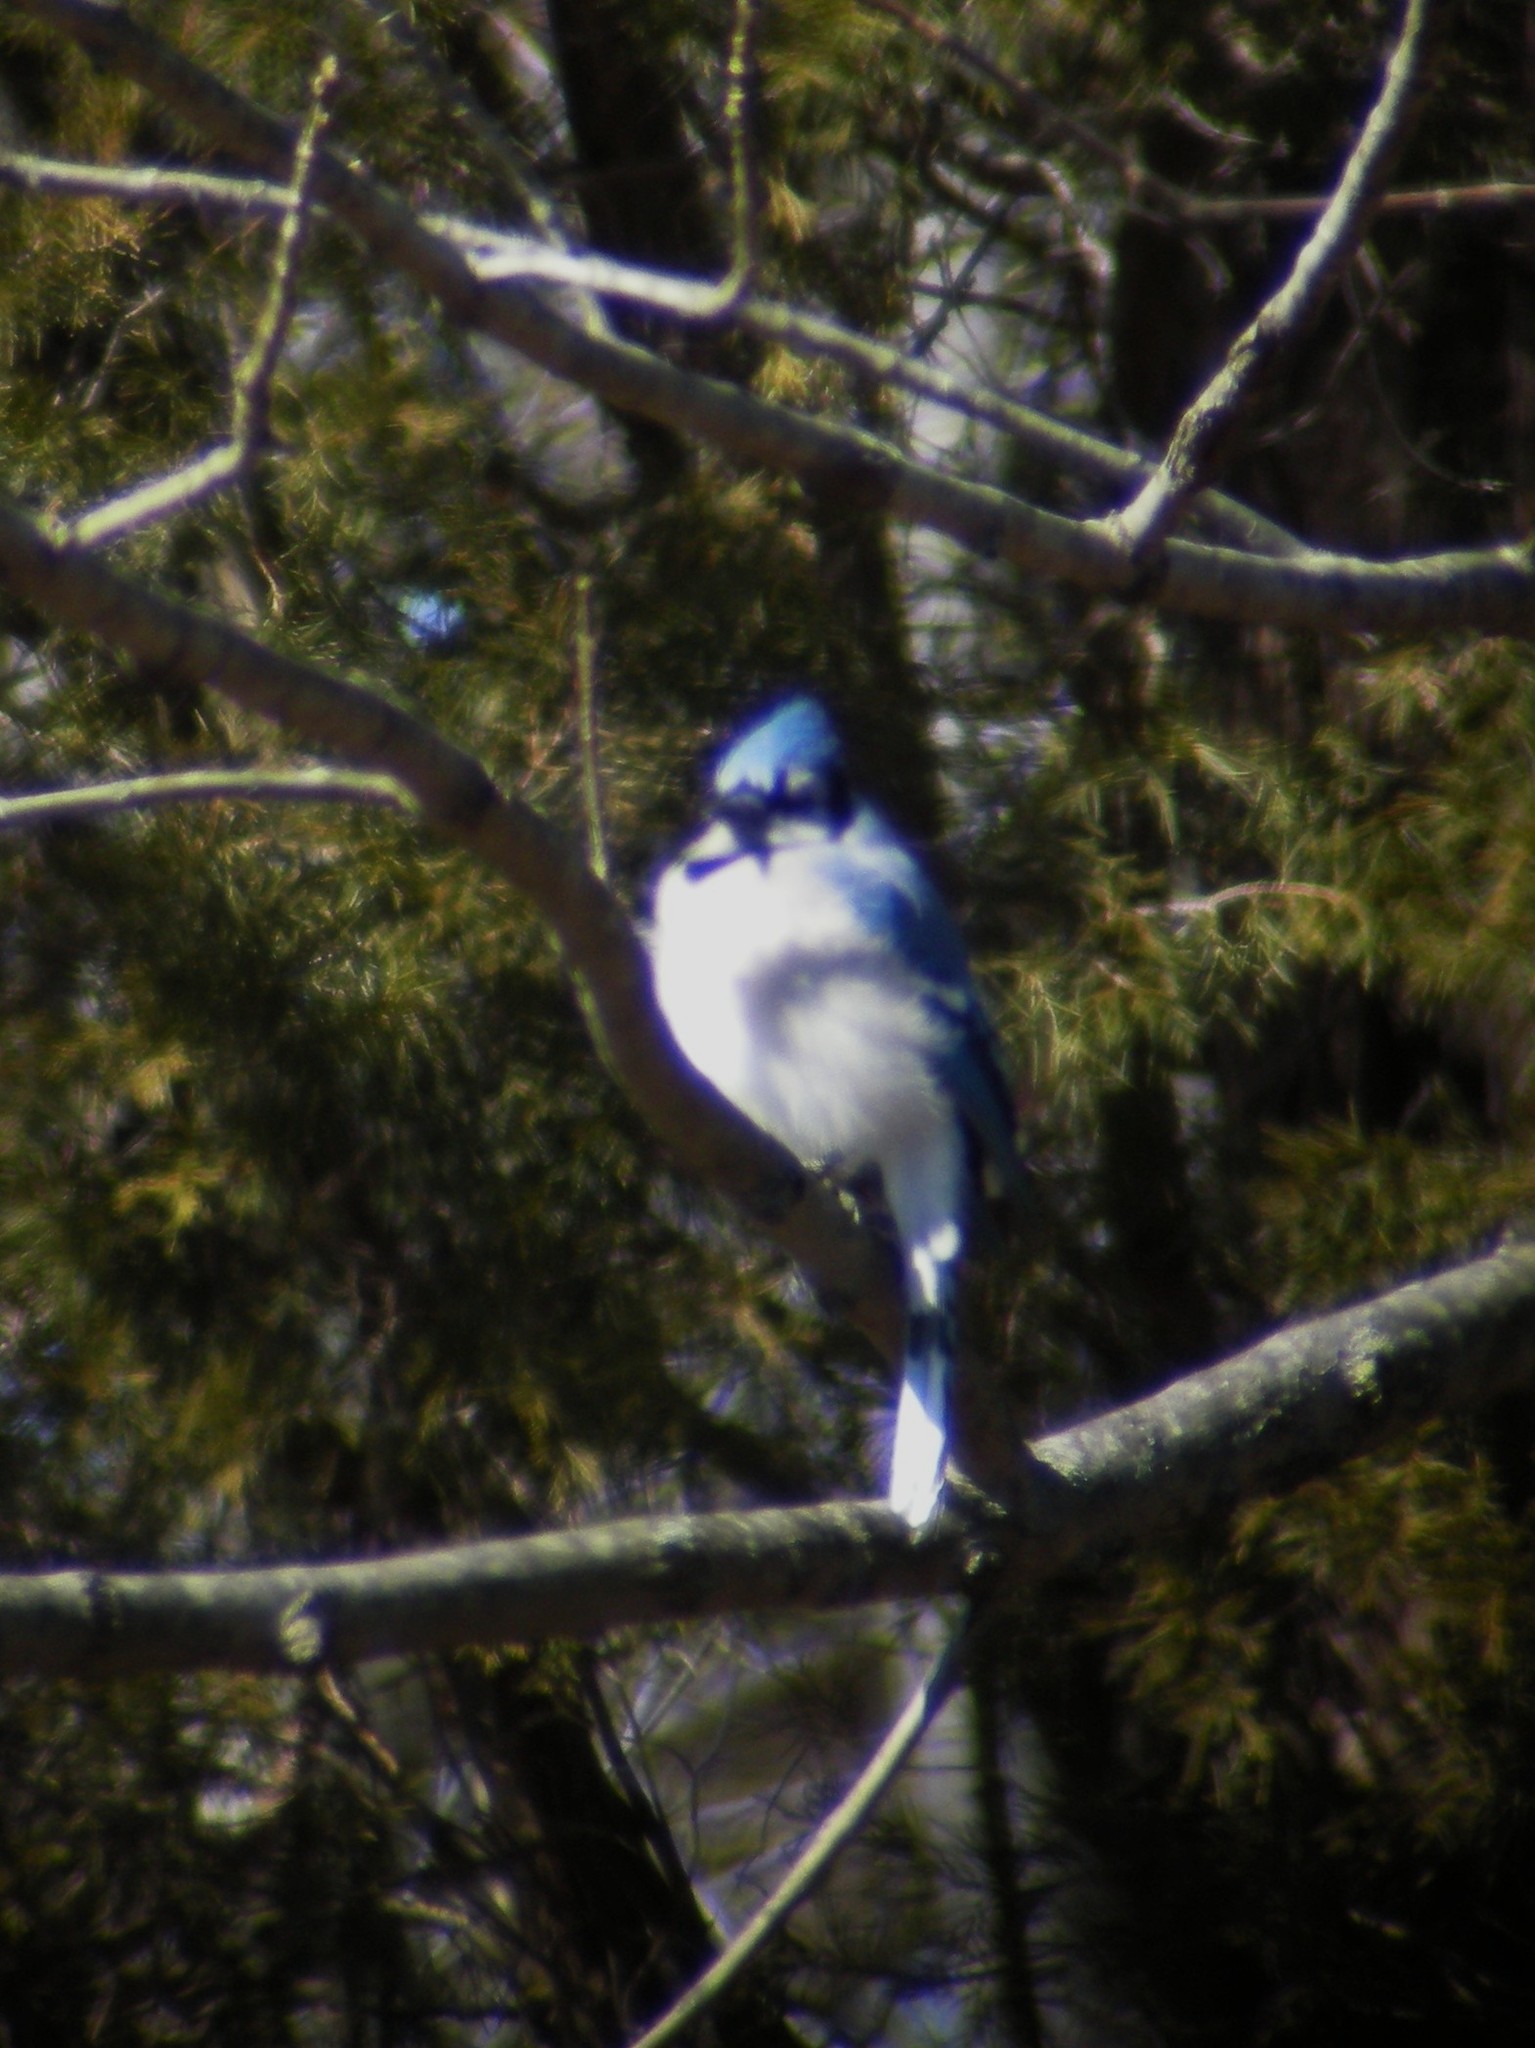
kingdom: Animalia
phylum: Chordata
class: Aves
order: Passeriformes
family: Corvidae
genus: Cyanocitta
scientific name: Cyanocitta cristata
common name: Blue jay
